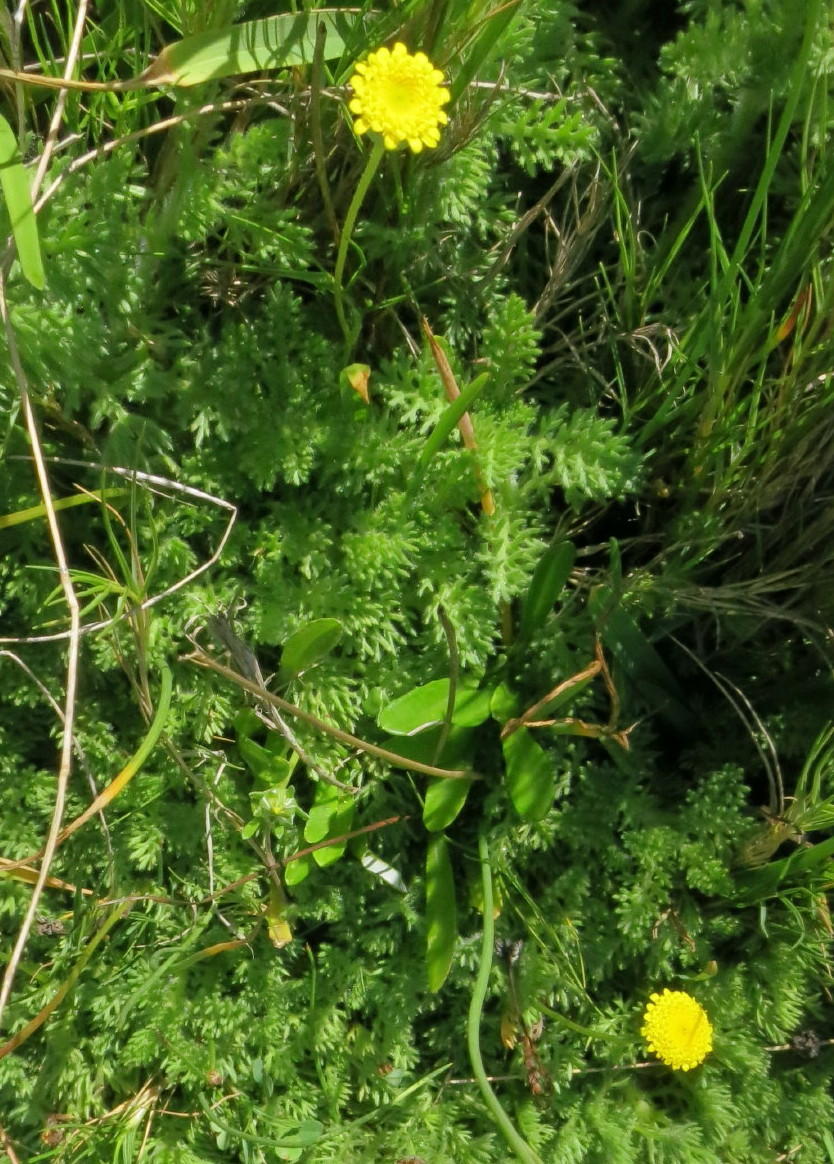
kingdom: Plantae
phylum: Tracheophyta
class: Magnoliopsida
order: Asterales
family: Asteraceae
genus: Cotula
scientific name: Cotula discolor
